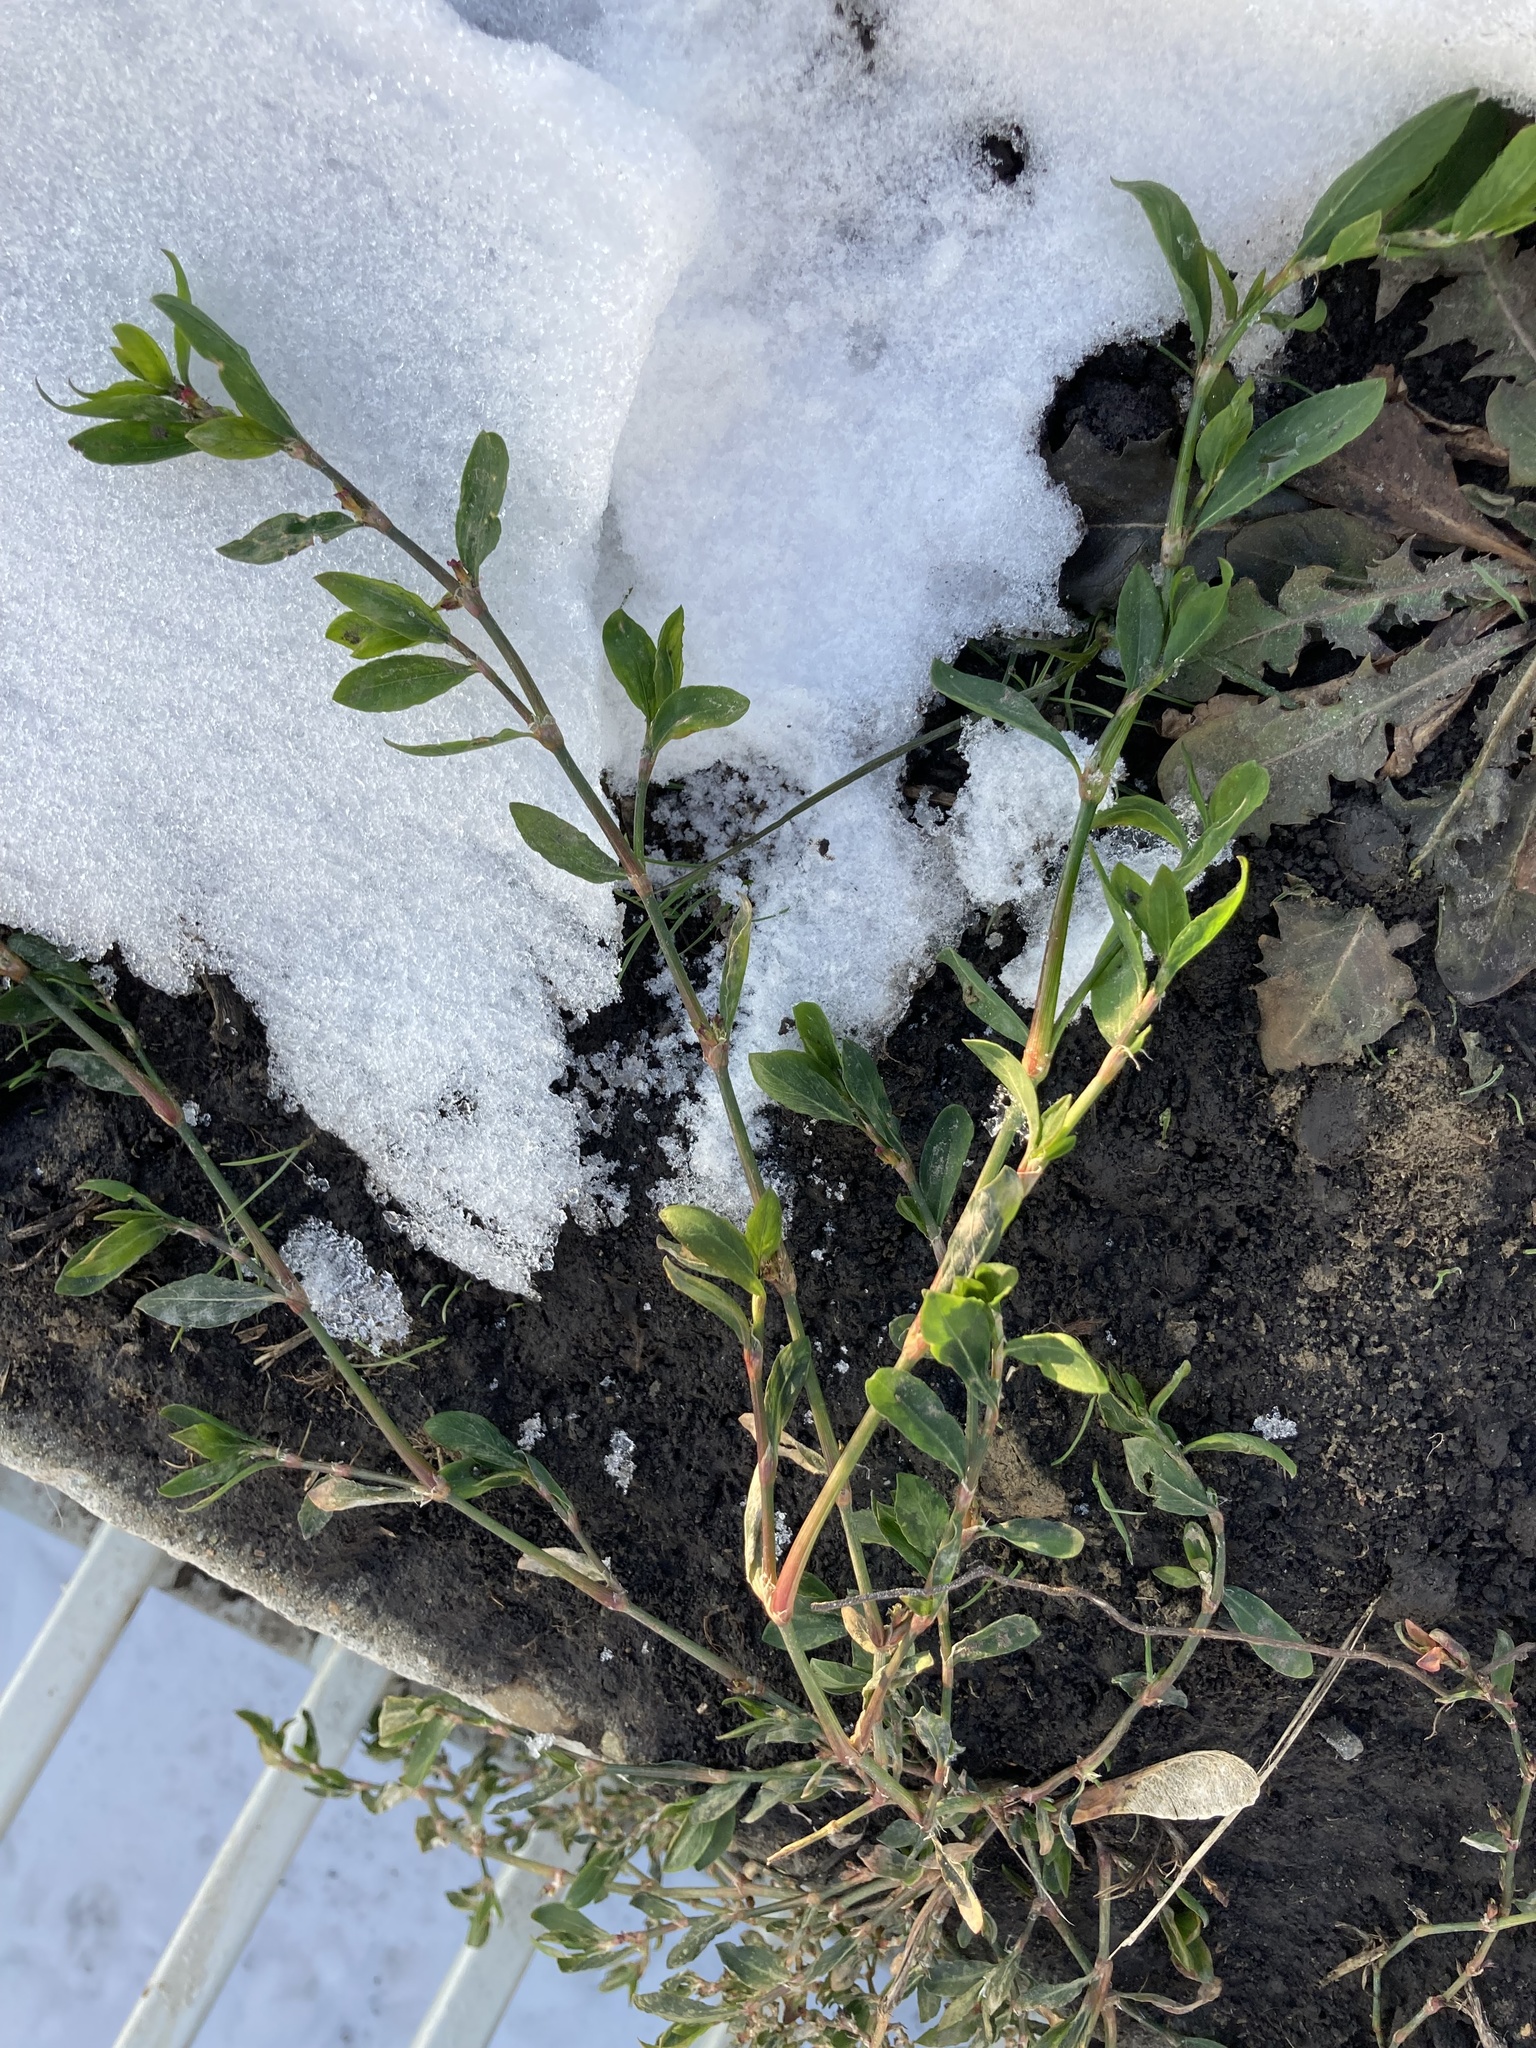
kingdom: Plantae
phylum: Tracheophyta
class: Magnoliopsida
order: Caryophyllales
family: Polygonaceae
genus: Polygonum
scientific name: Polygonum
